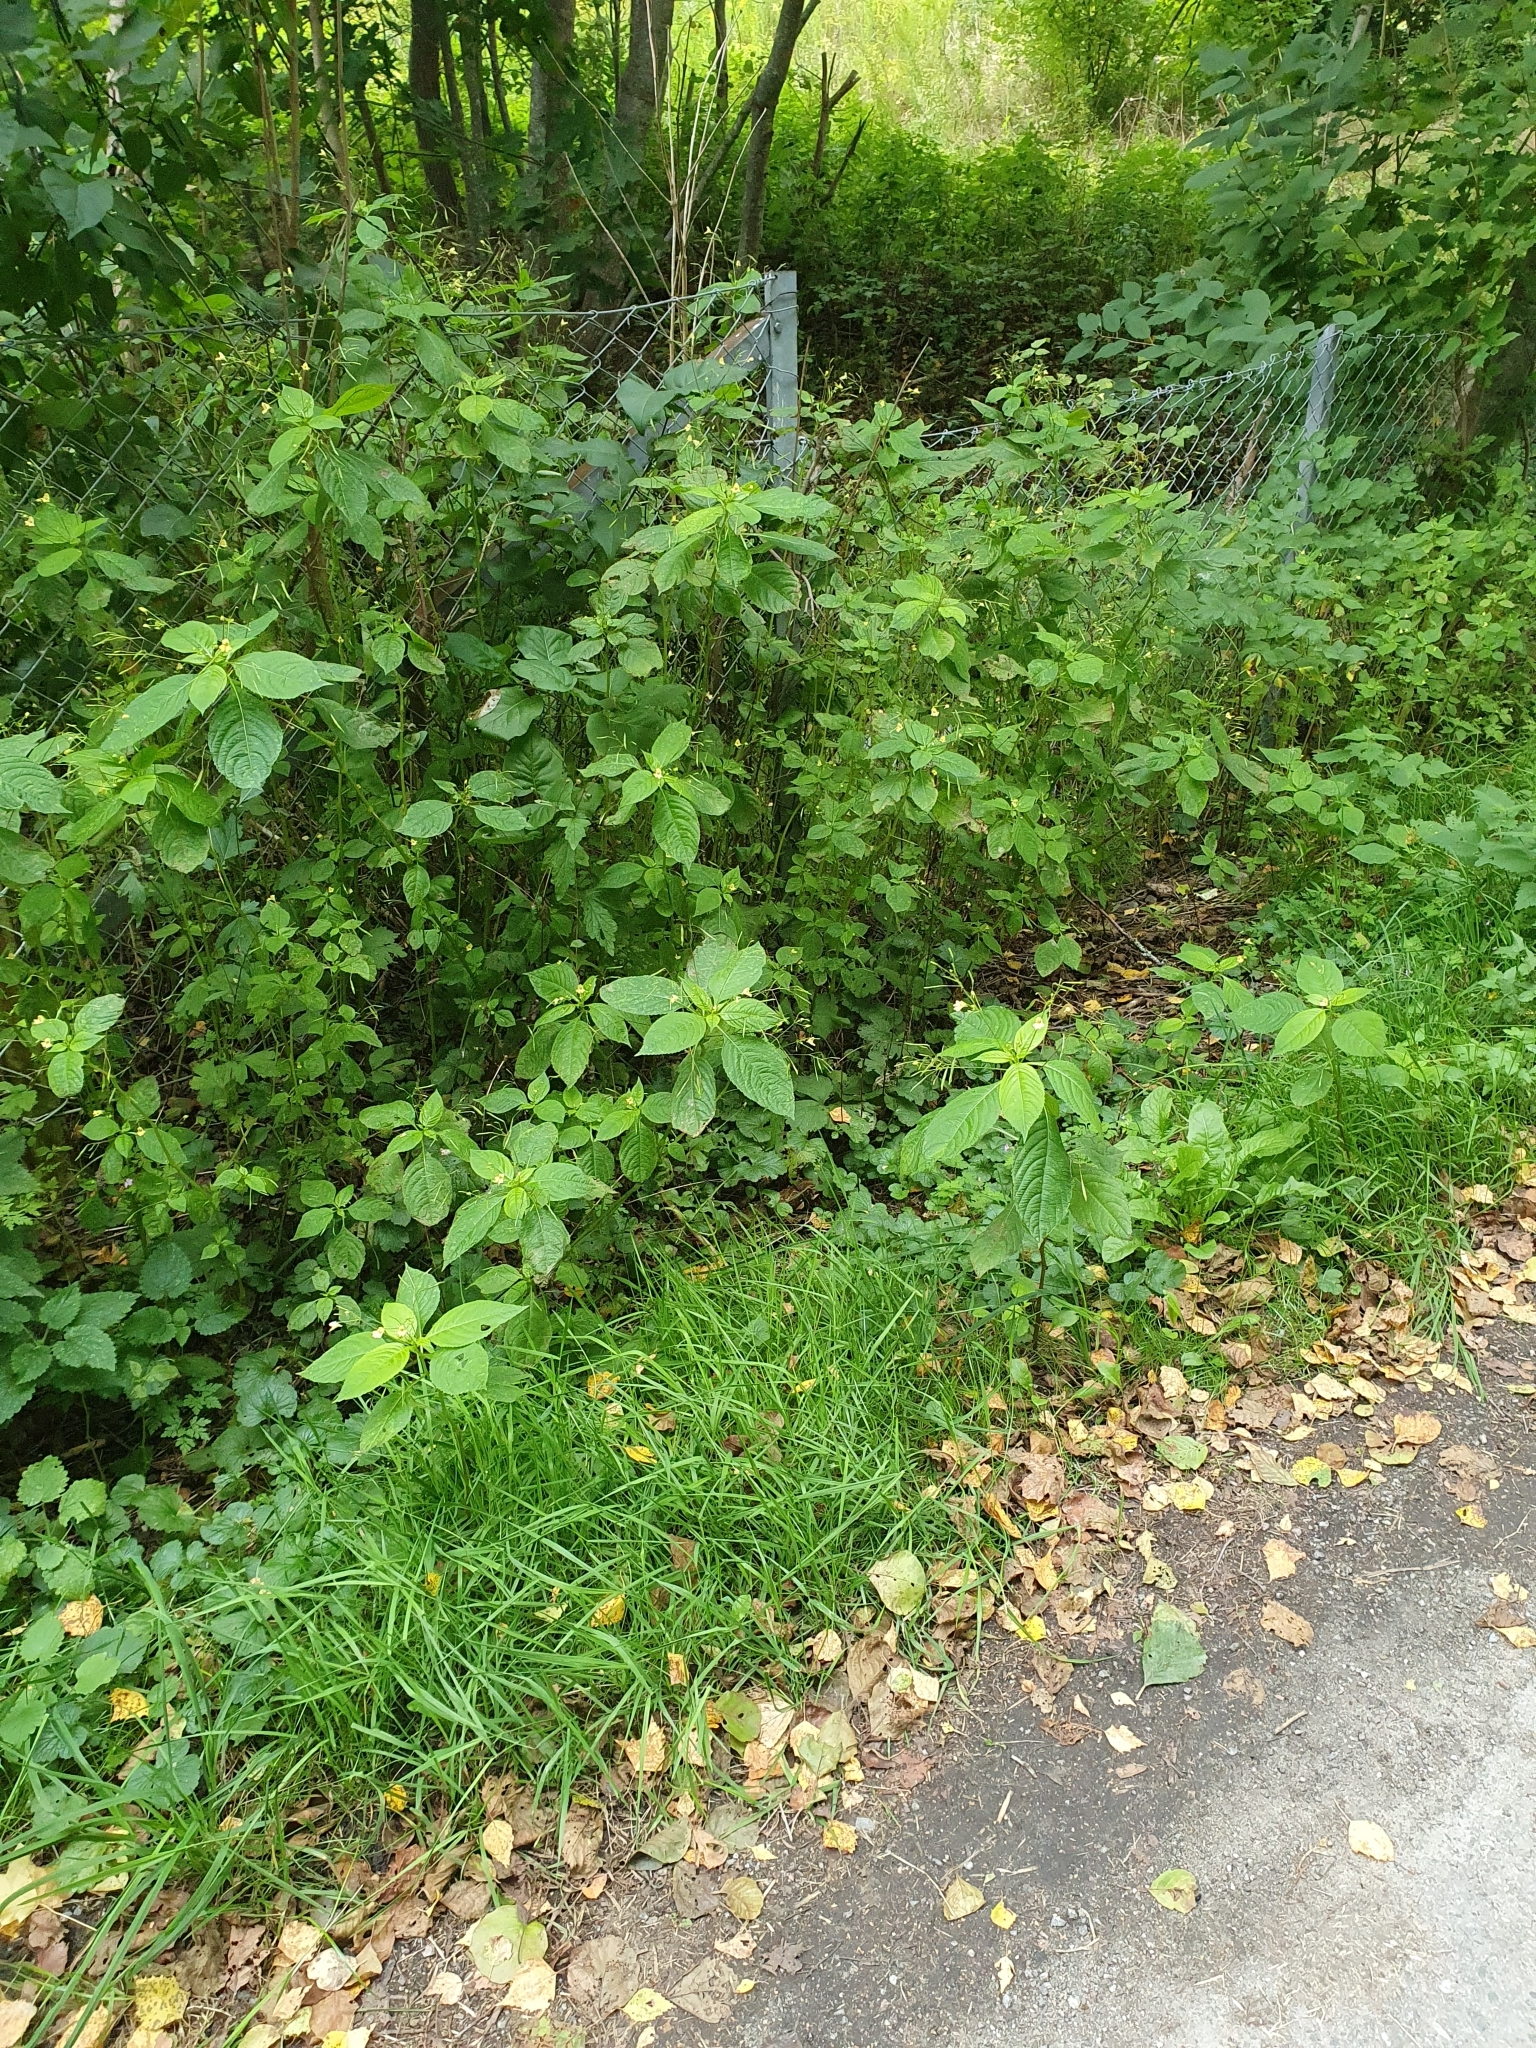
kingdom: Plantae
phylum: Tracheophyta
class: Magnoliopsida
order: Ericales
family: Balsaminaceae
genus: Impatiens
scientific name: Impatiens parviflora
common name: Small balsam
